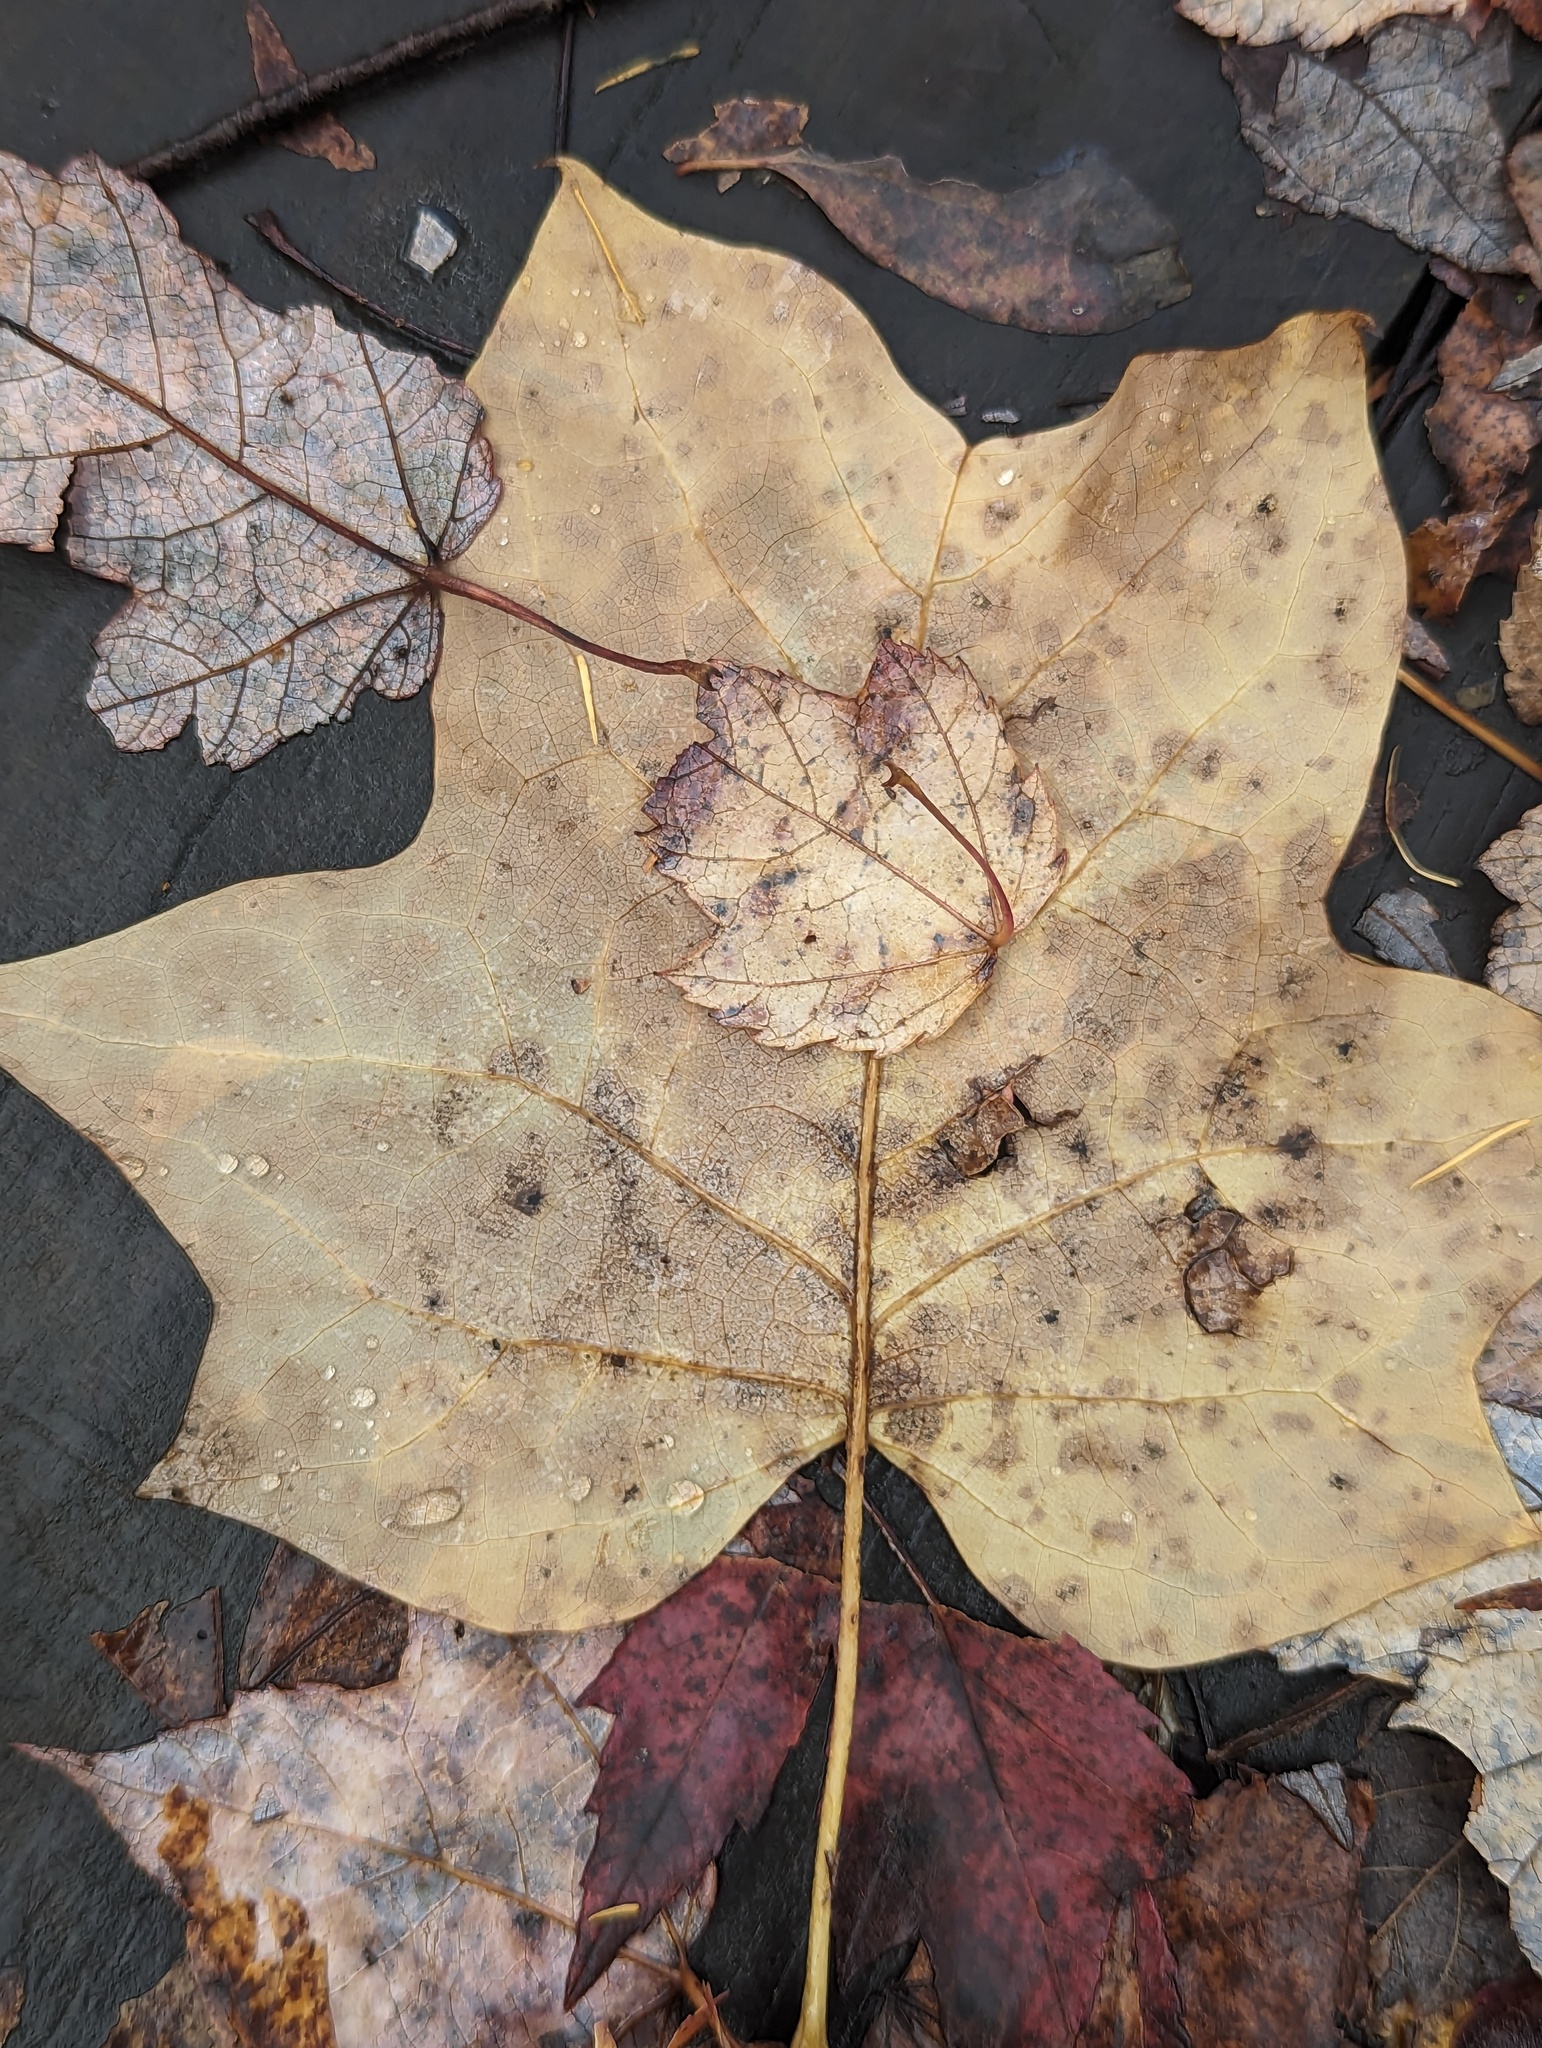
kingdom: Plantae
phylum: Tracheophyta
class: Magnoliopsida
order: Magnoliales
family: Magnoliaceae
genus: Liriodendron
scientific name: Liriodendron tulipifera
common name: Tulip tree
